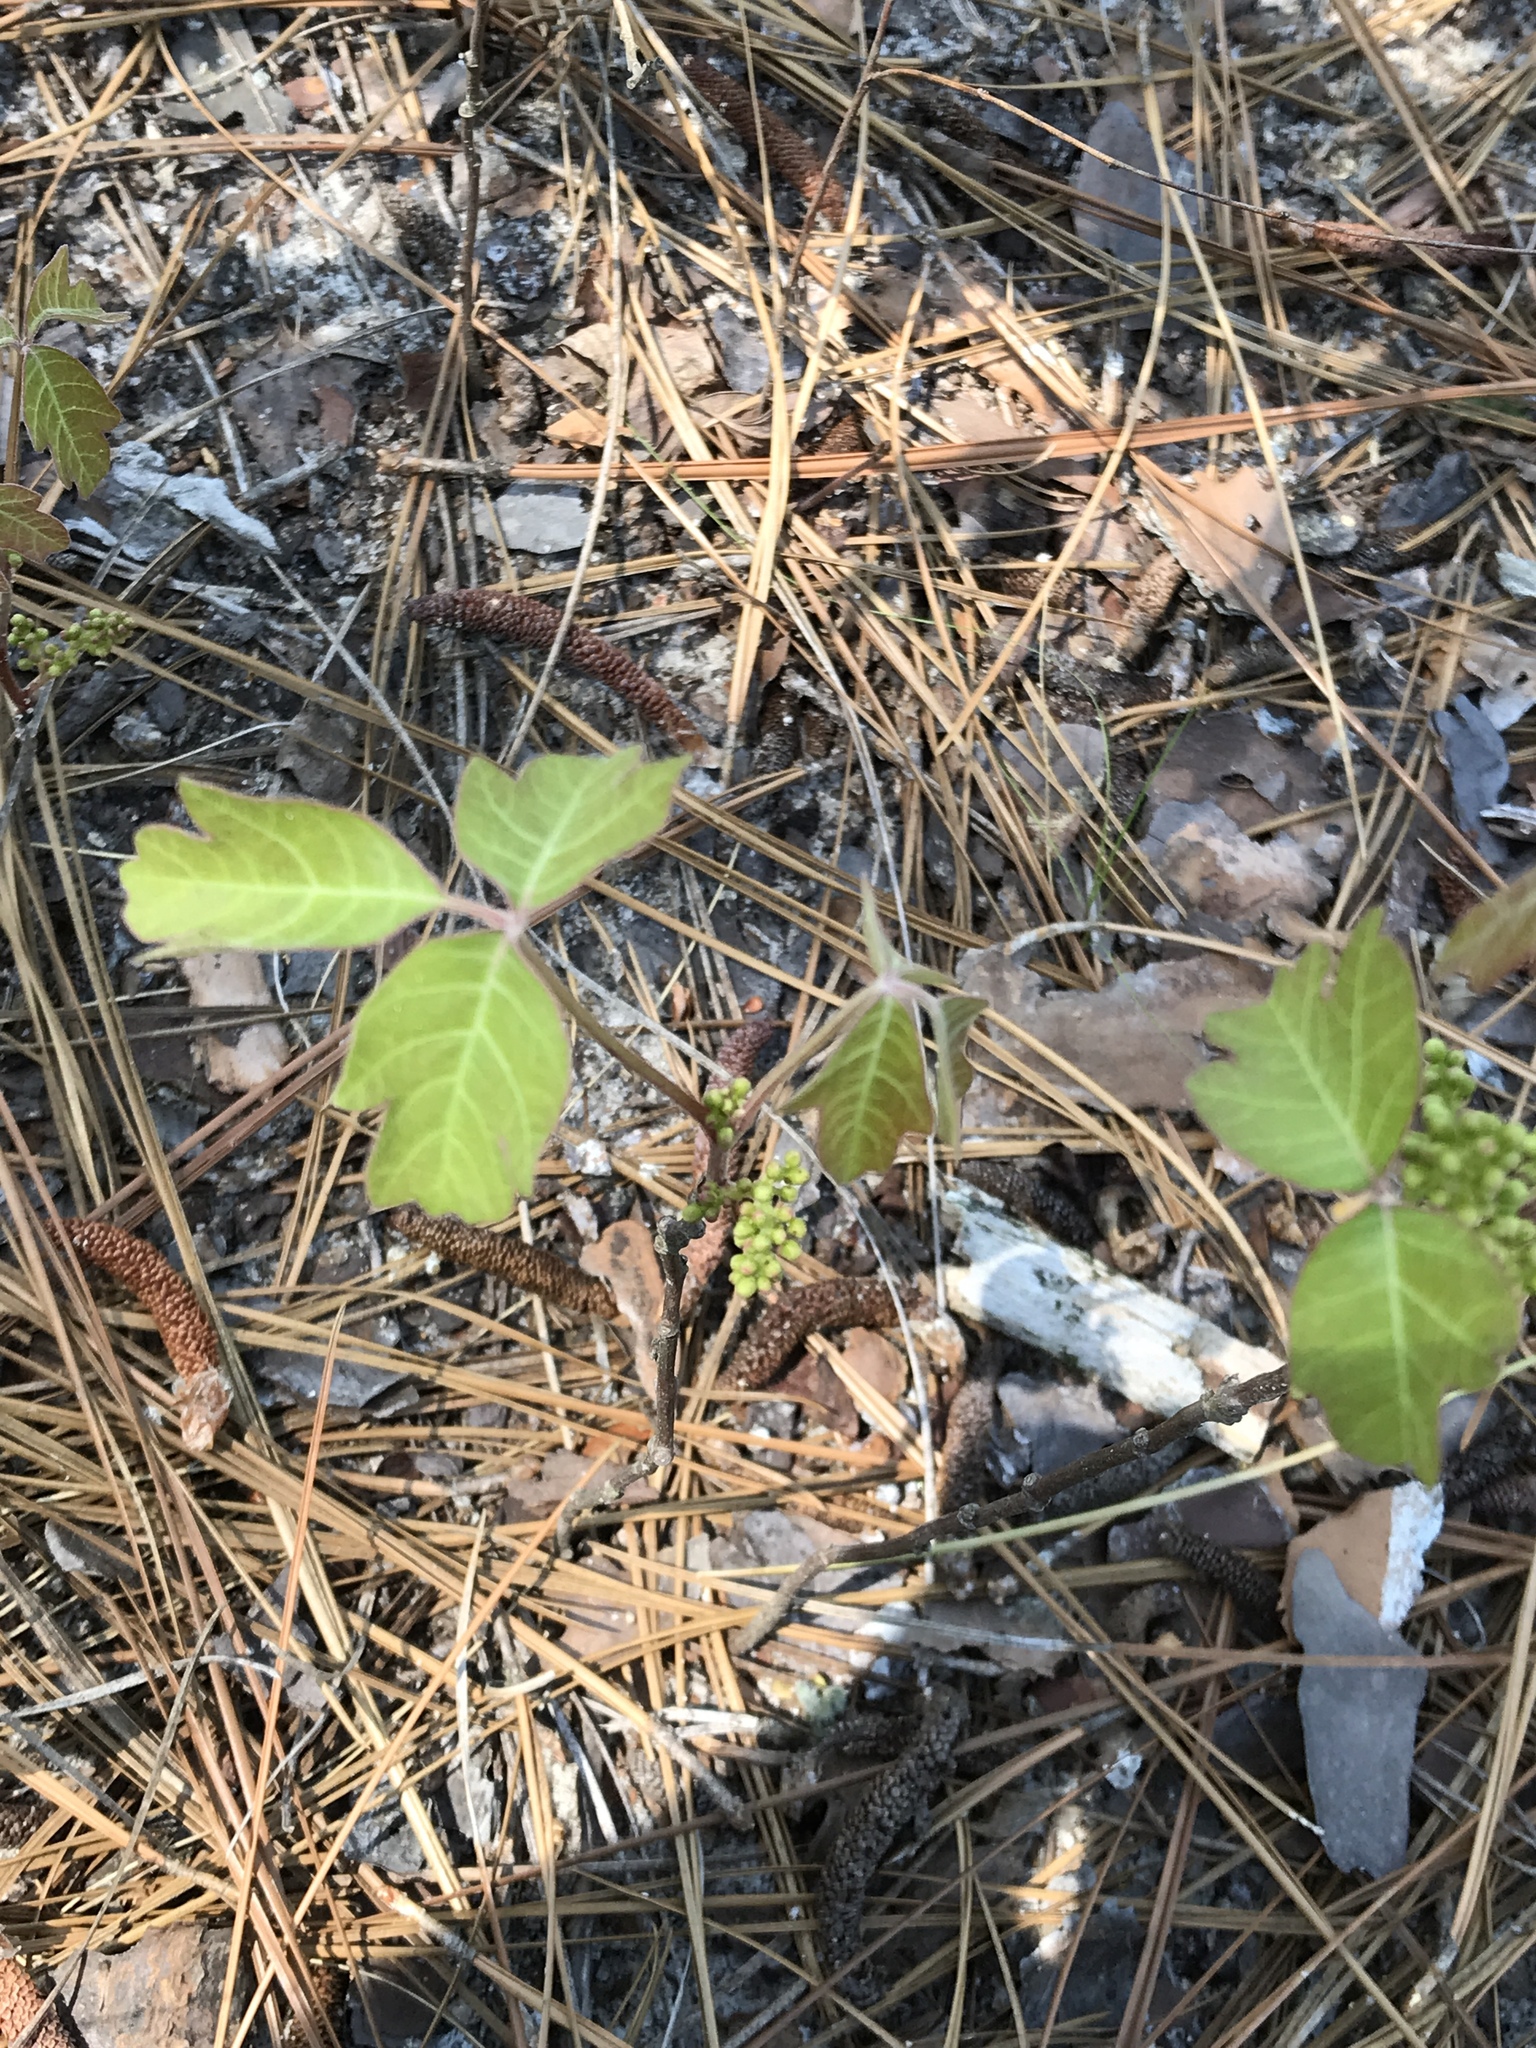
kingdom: Plantae
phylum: Tracheophyta
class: Magnoliopsida
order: Sapindales
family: Anacardiaceae
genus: Toxicodendron
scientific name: Toxicodendron pubescens
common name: Eastern poison-oak
